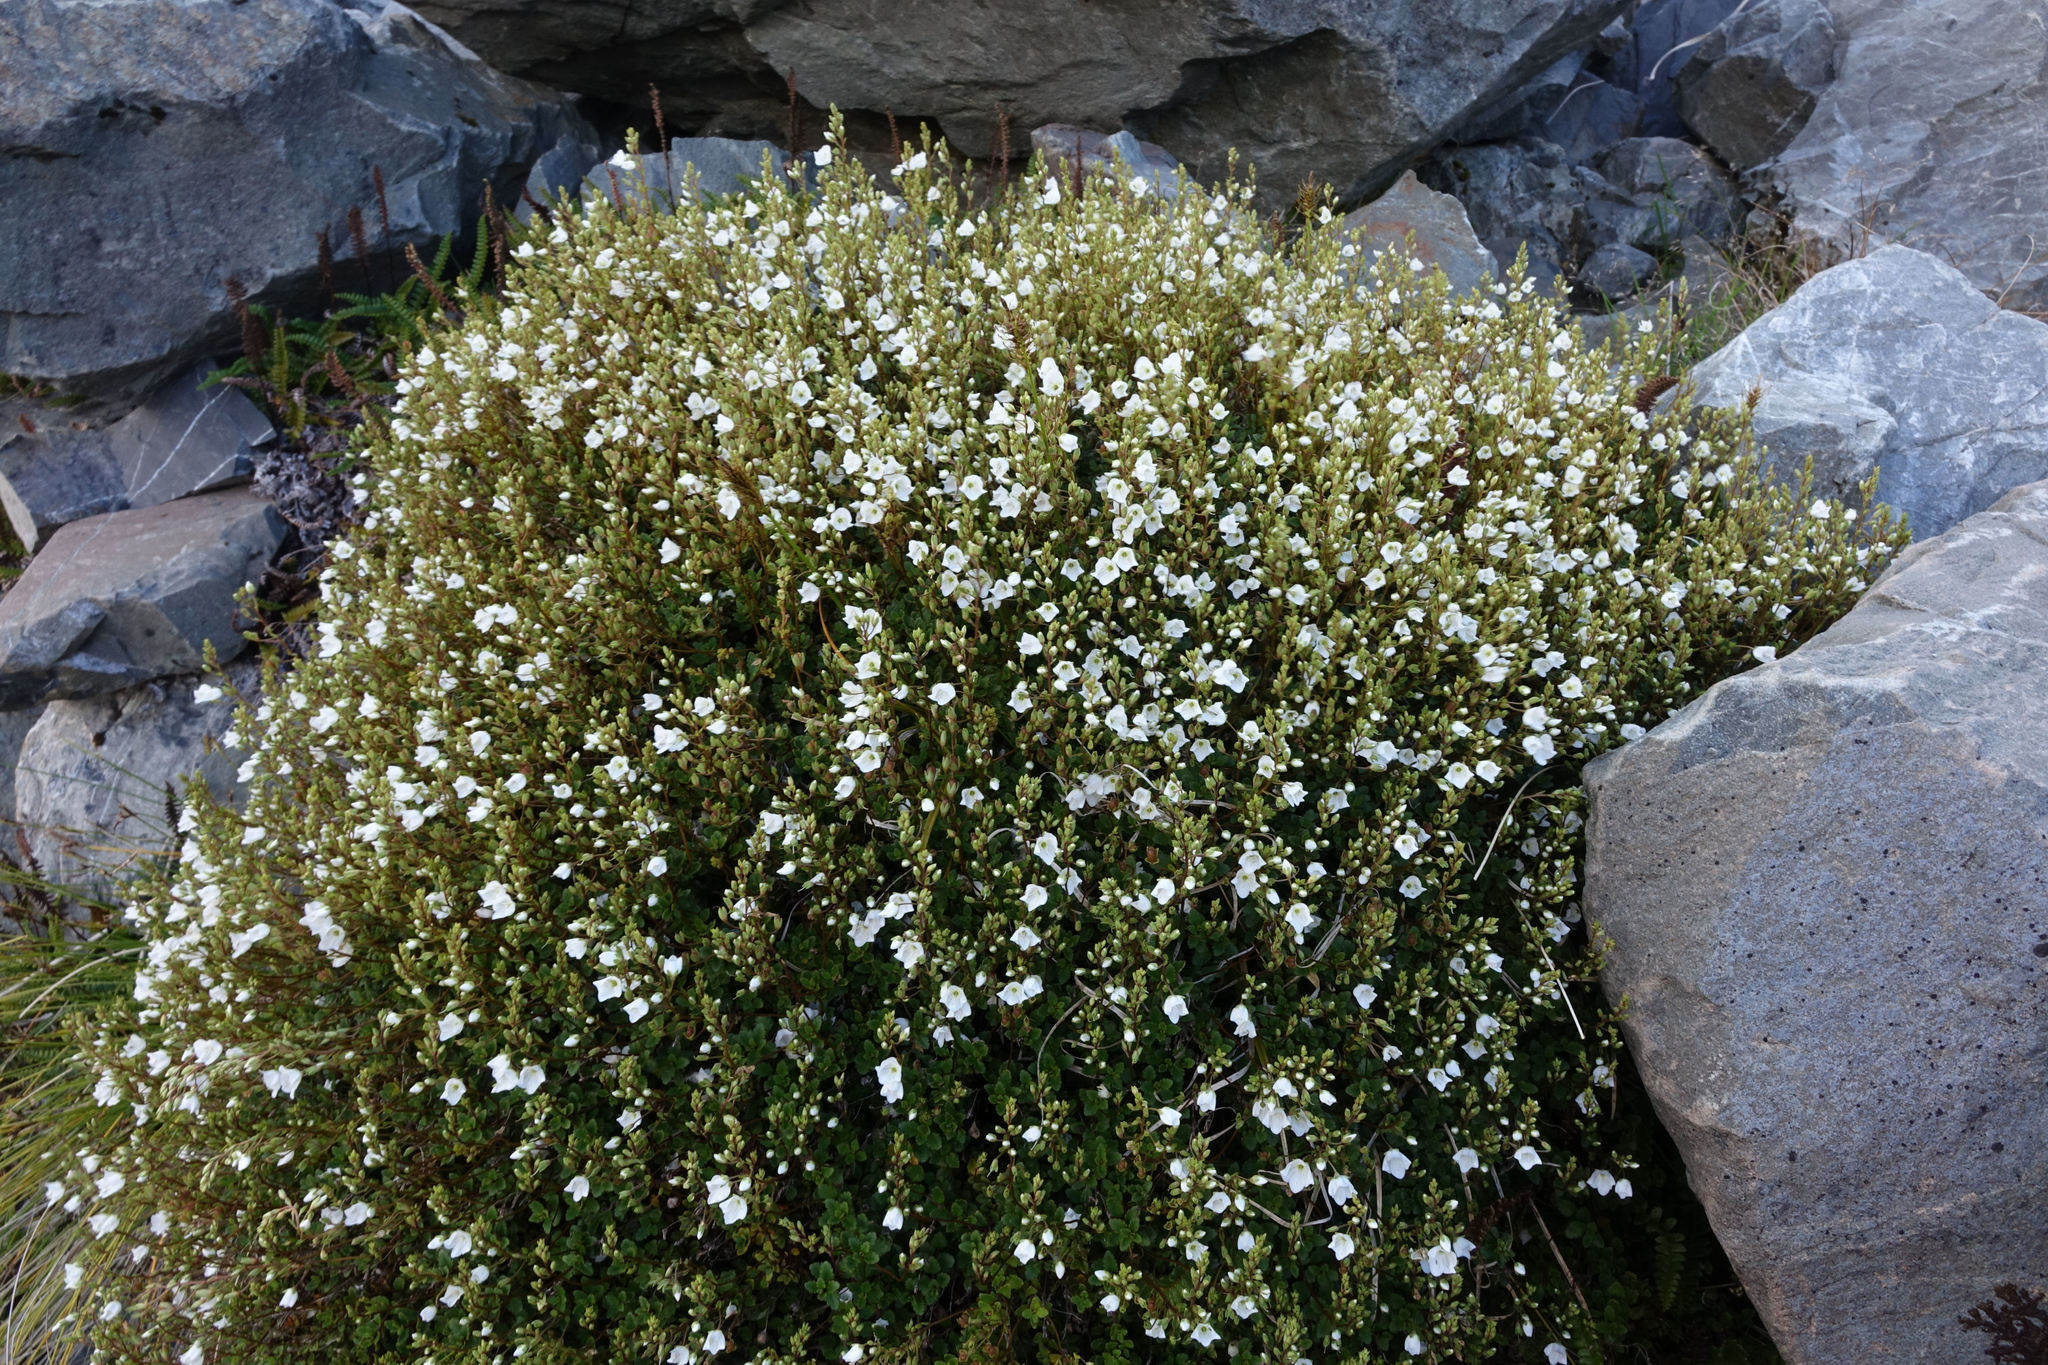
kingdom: Plantae
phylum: Tracheophyta
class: Magnoliopsida
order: Lamiales
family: Plantaginaceae
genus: Veronica
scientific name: Veronica lyallii
